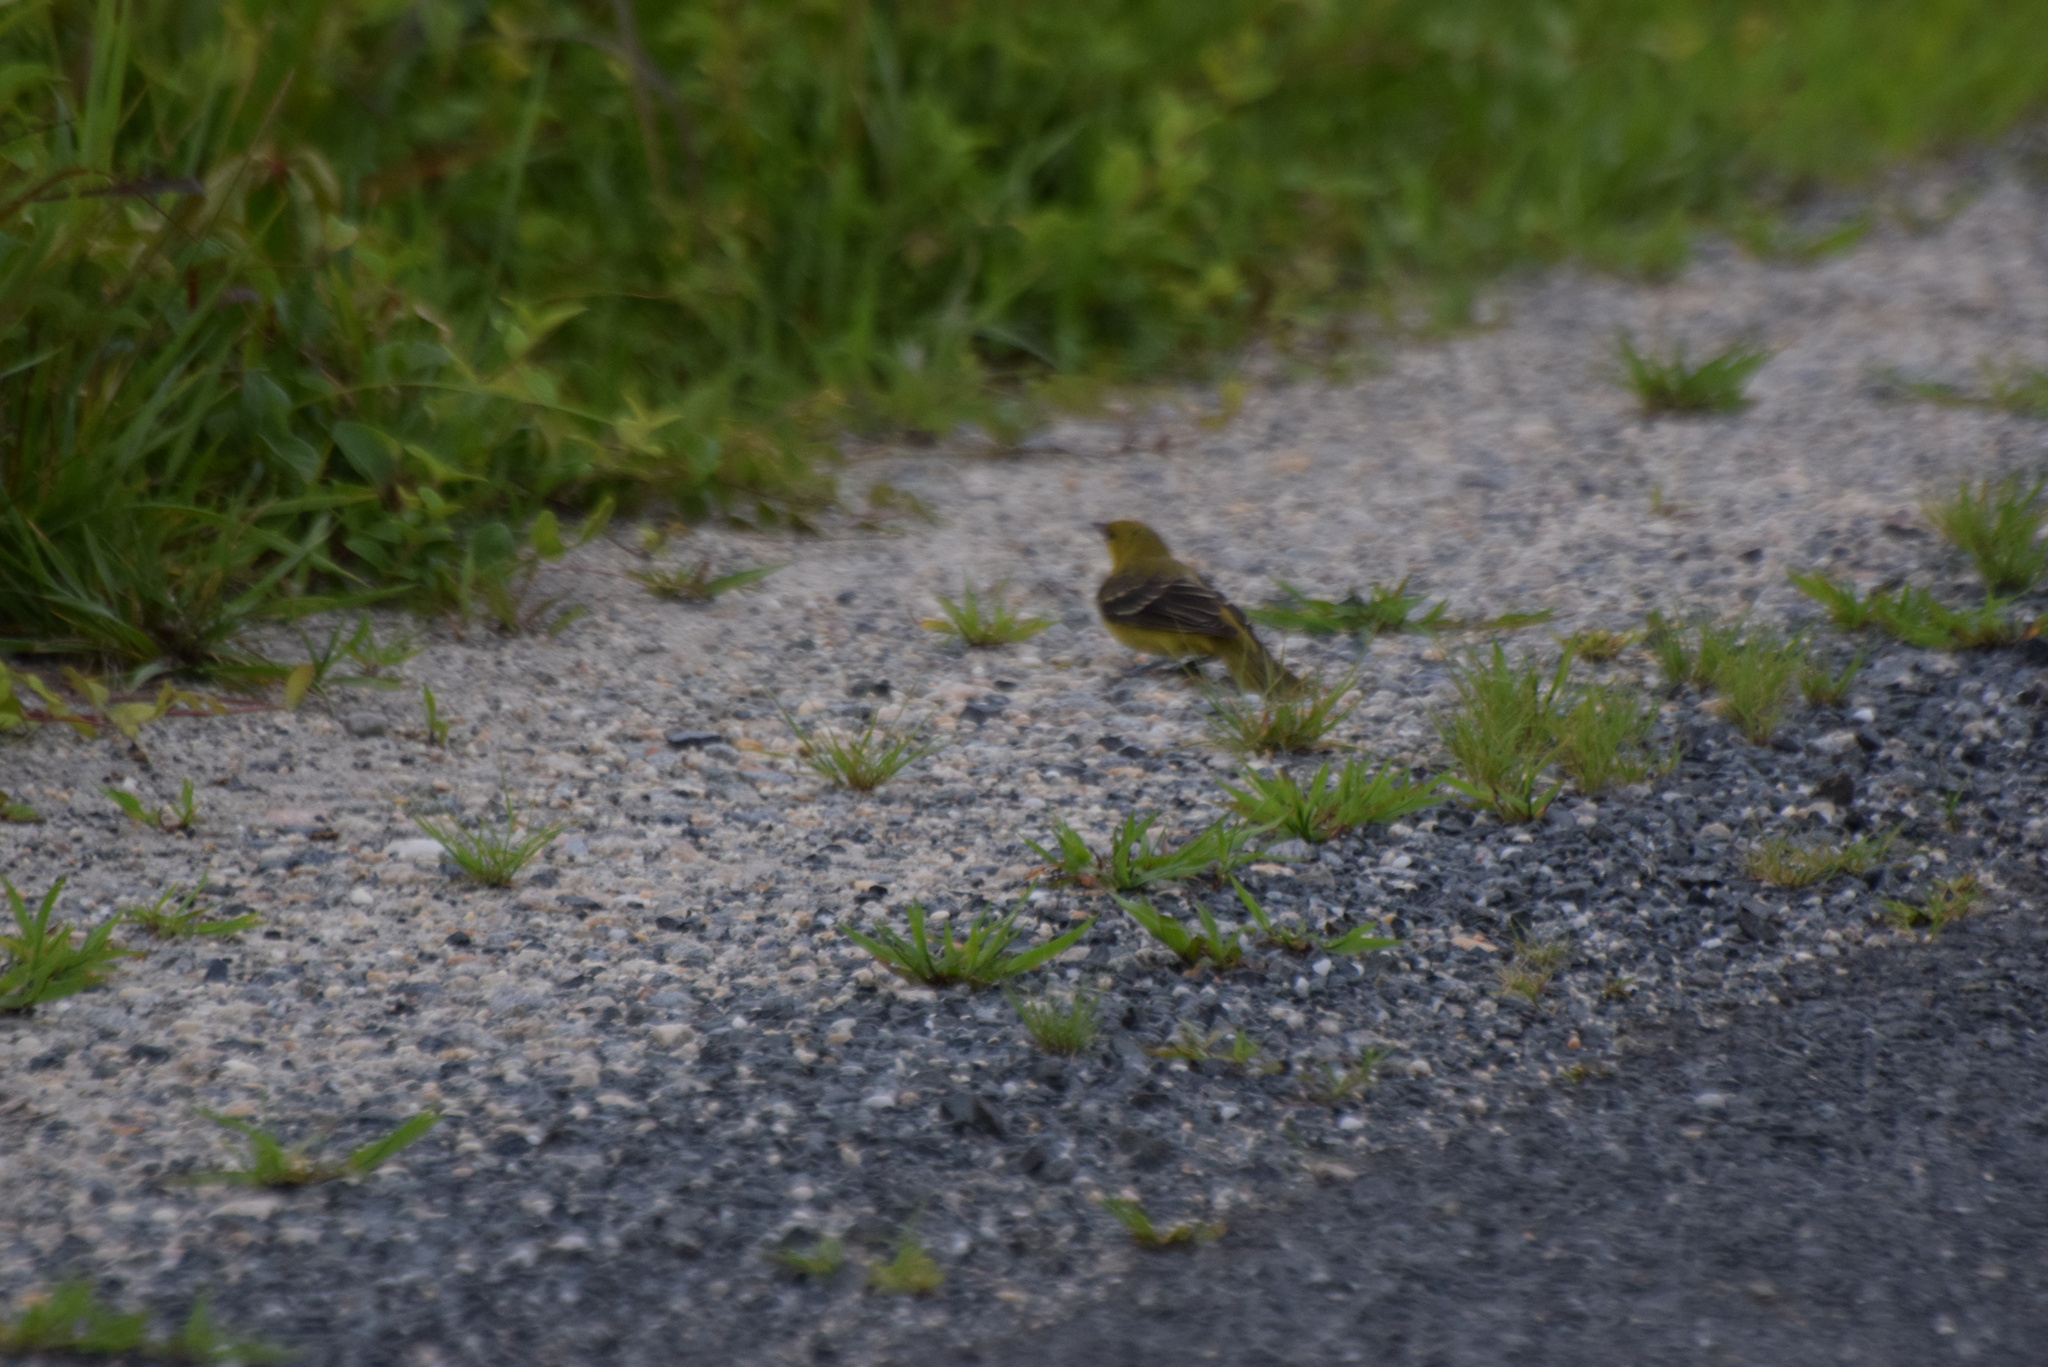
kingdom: Animalia
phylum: Chordata
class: Aves
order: Passeriformes
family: Icteridae
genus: Icterus
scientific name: Icterus spurius
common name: Orchard oriole
